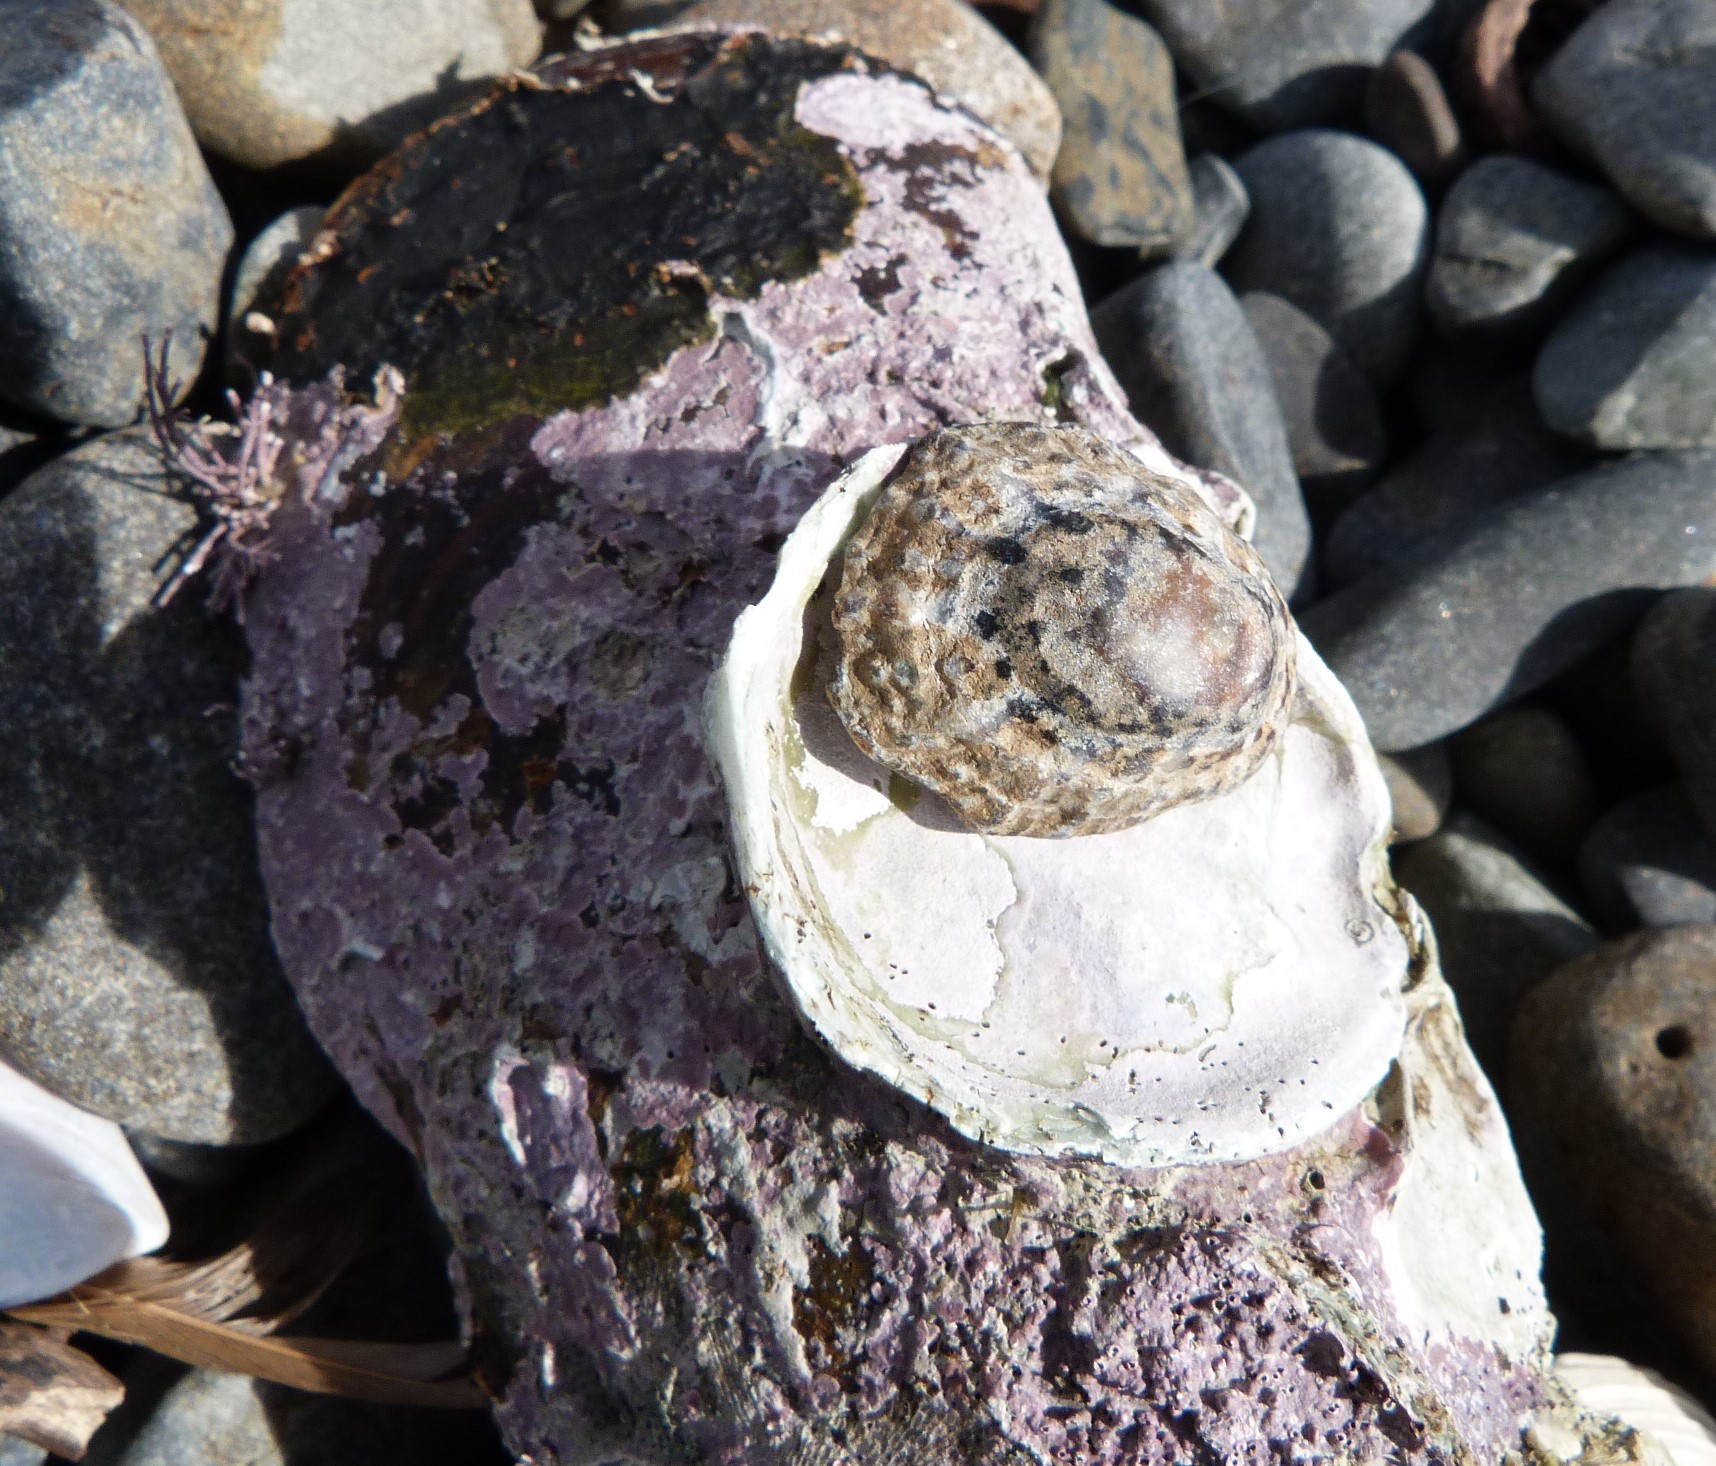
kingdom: Animalia
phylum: Mollusca
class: Gastropoda
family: Nacellidae
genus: Cellana
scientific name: Cellana ornata
